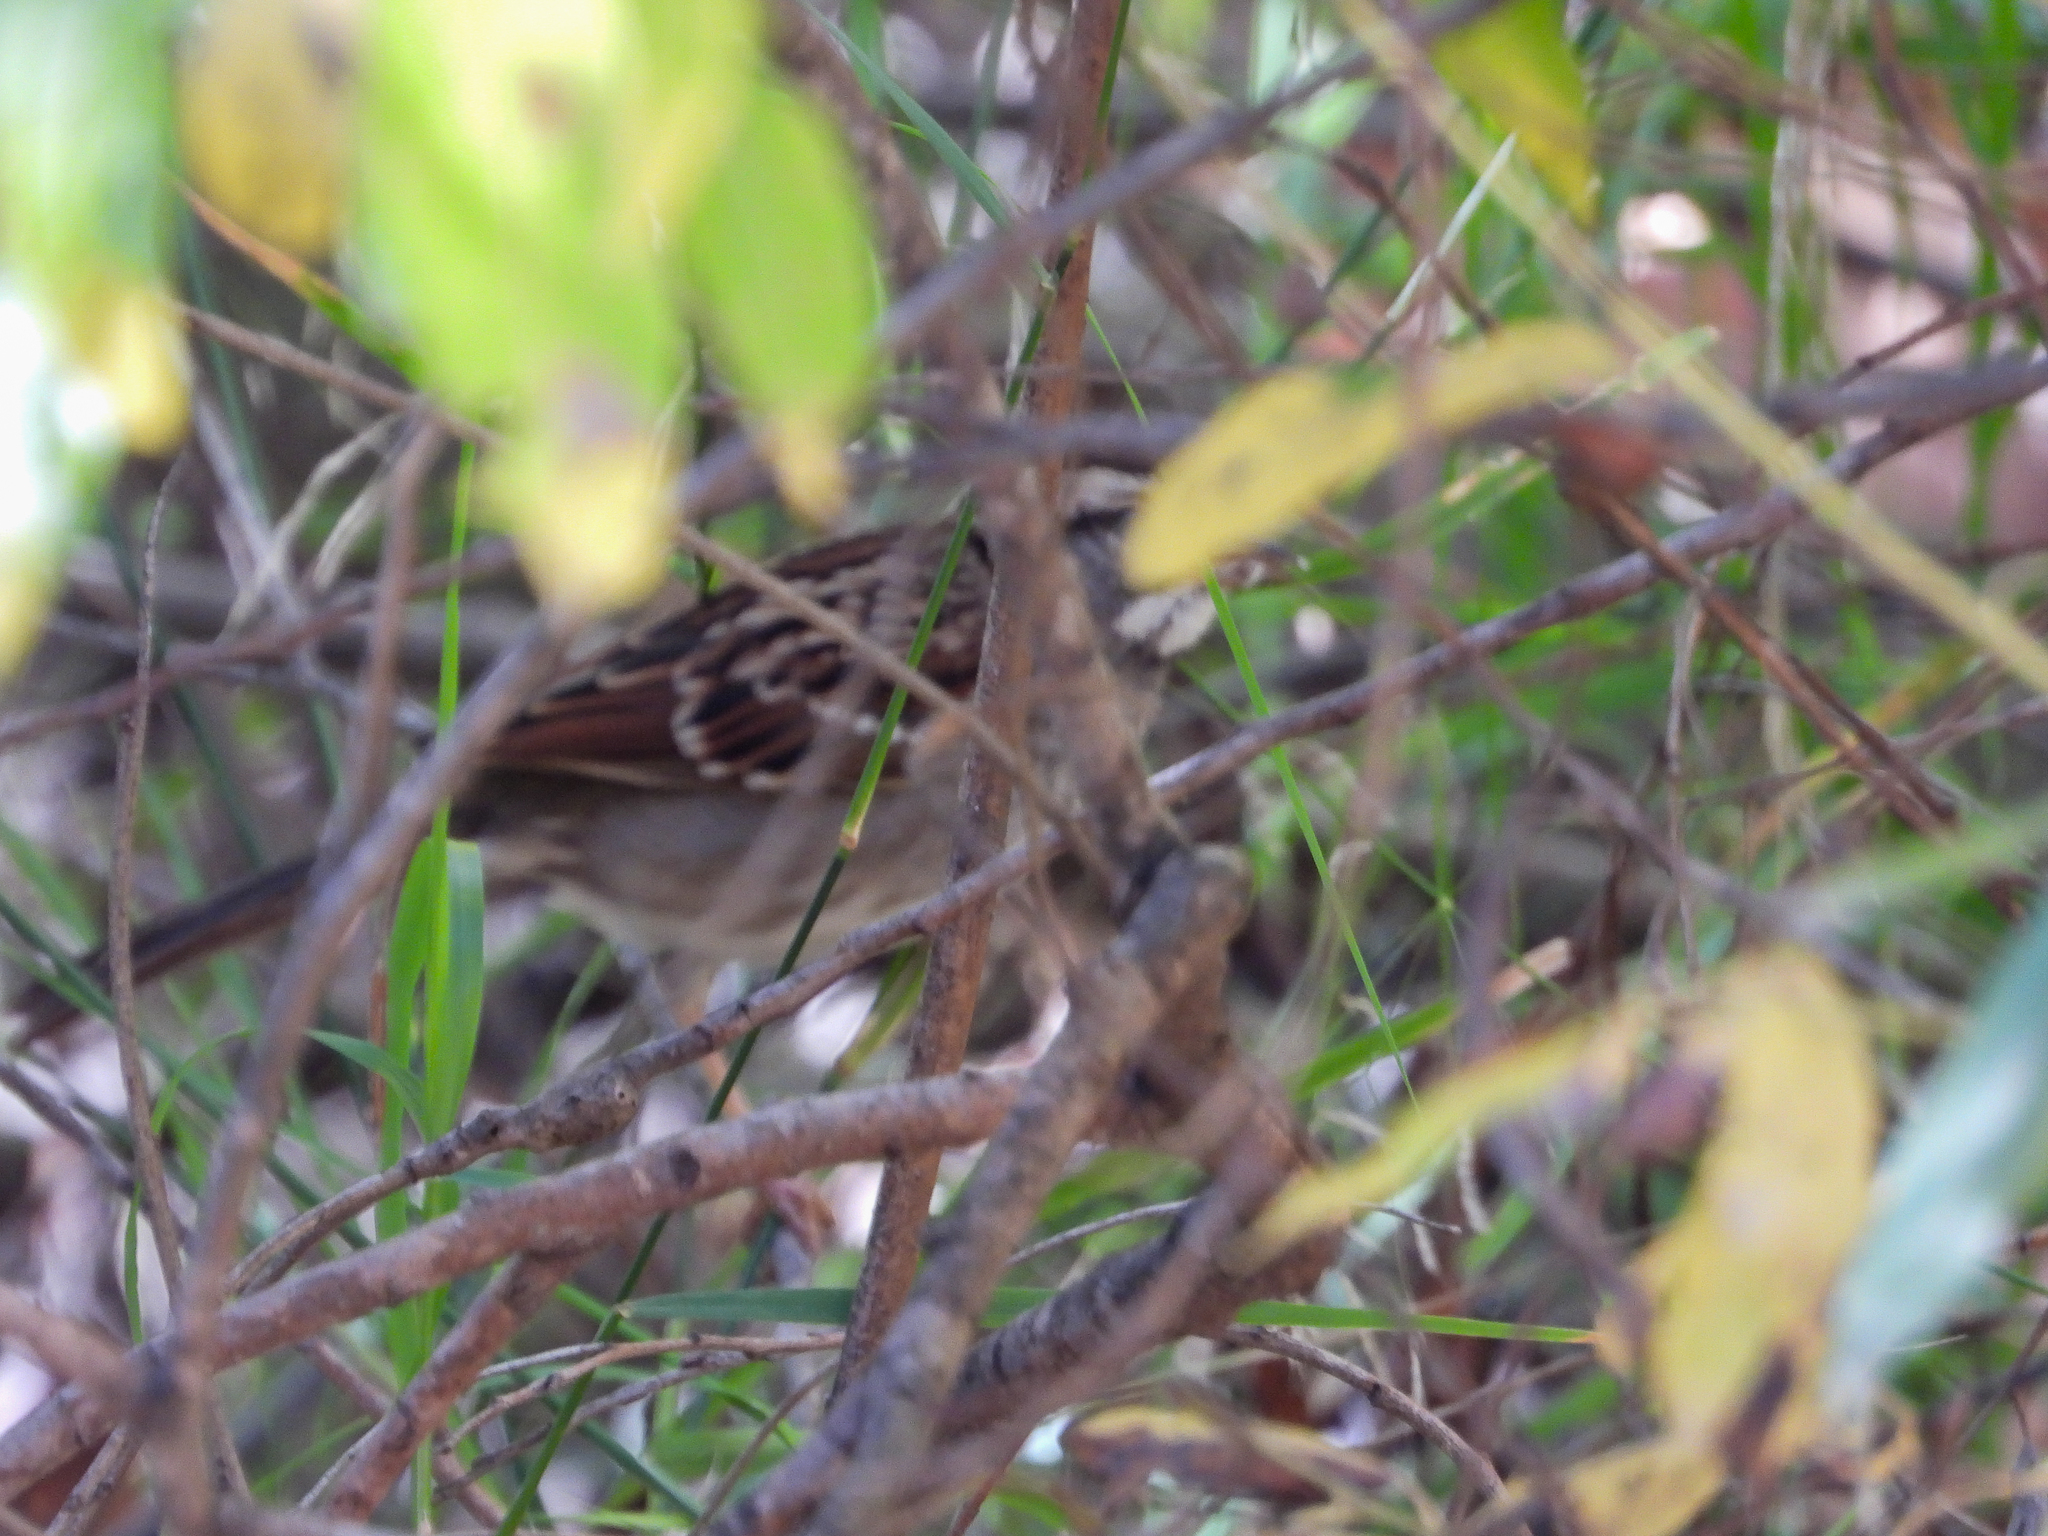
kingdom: Animalia
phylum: Chordata
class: Aves
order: Passeriformes
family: Passerellidae
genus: Zonotrichia
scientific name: Zonotrichia albicollis
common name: White-throated sparrow
